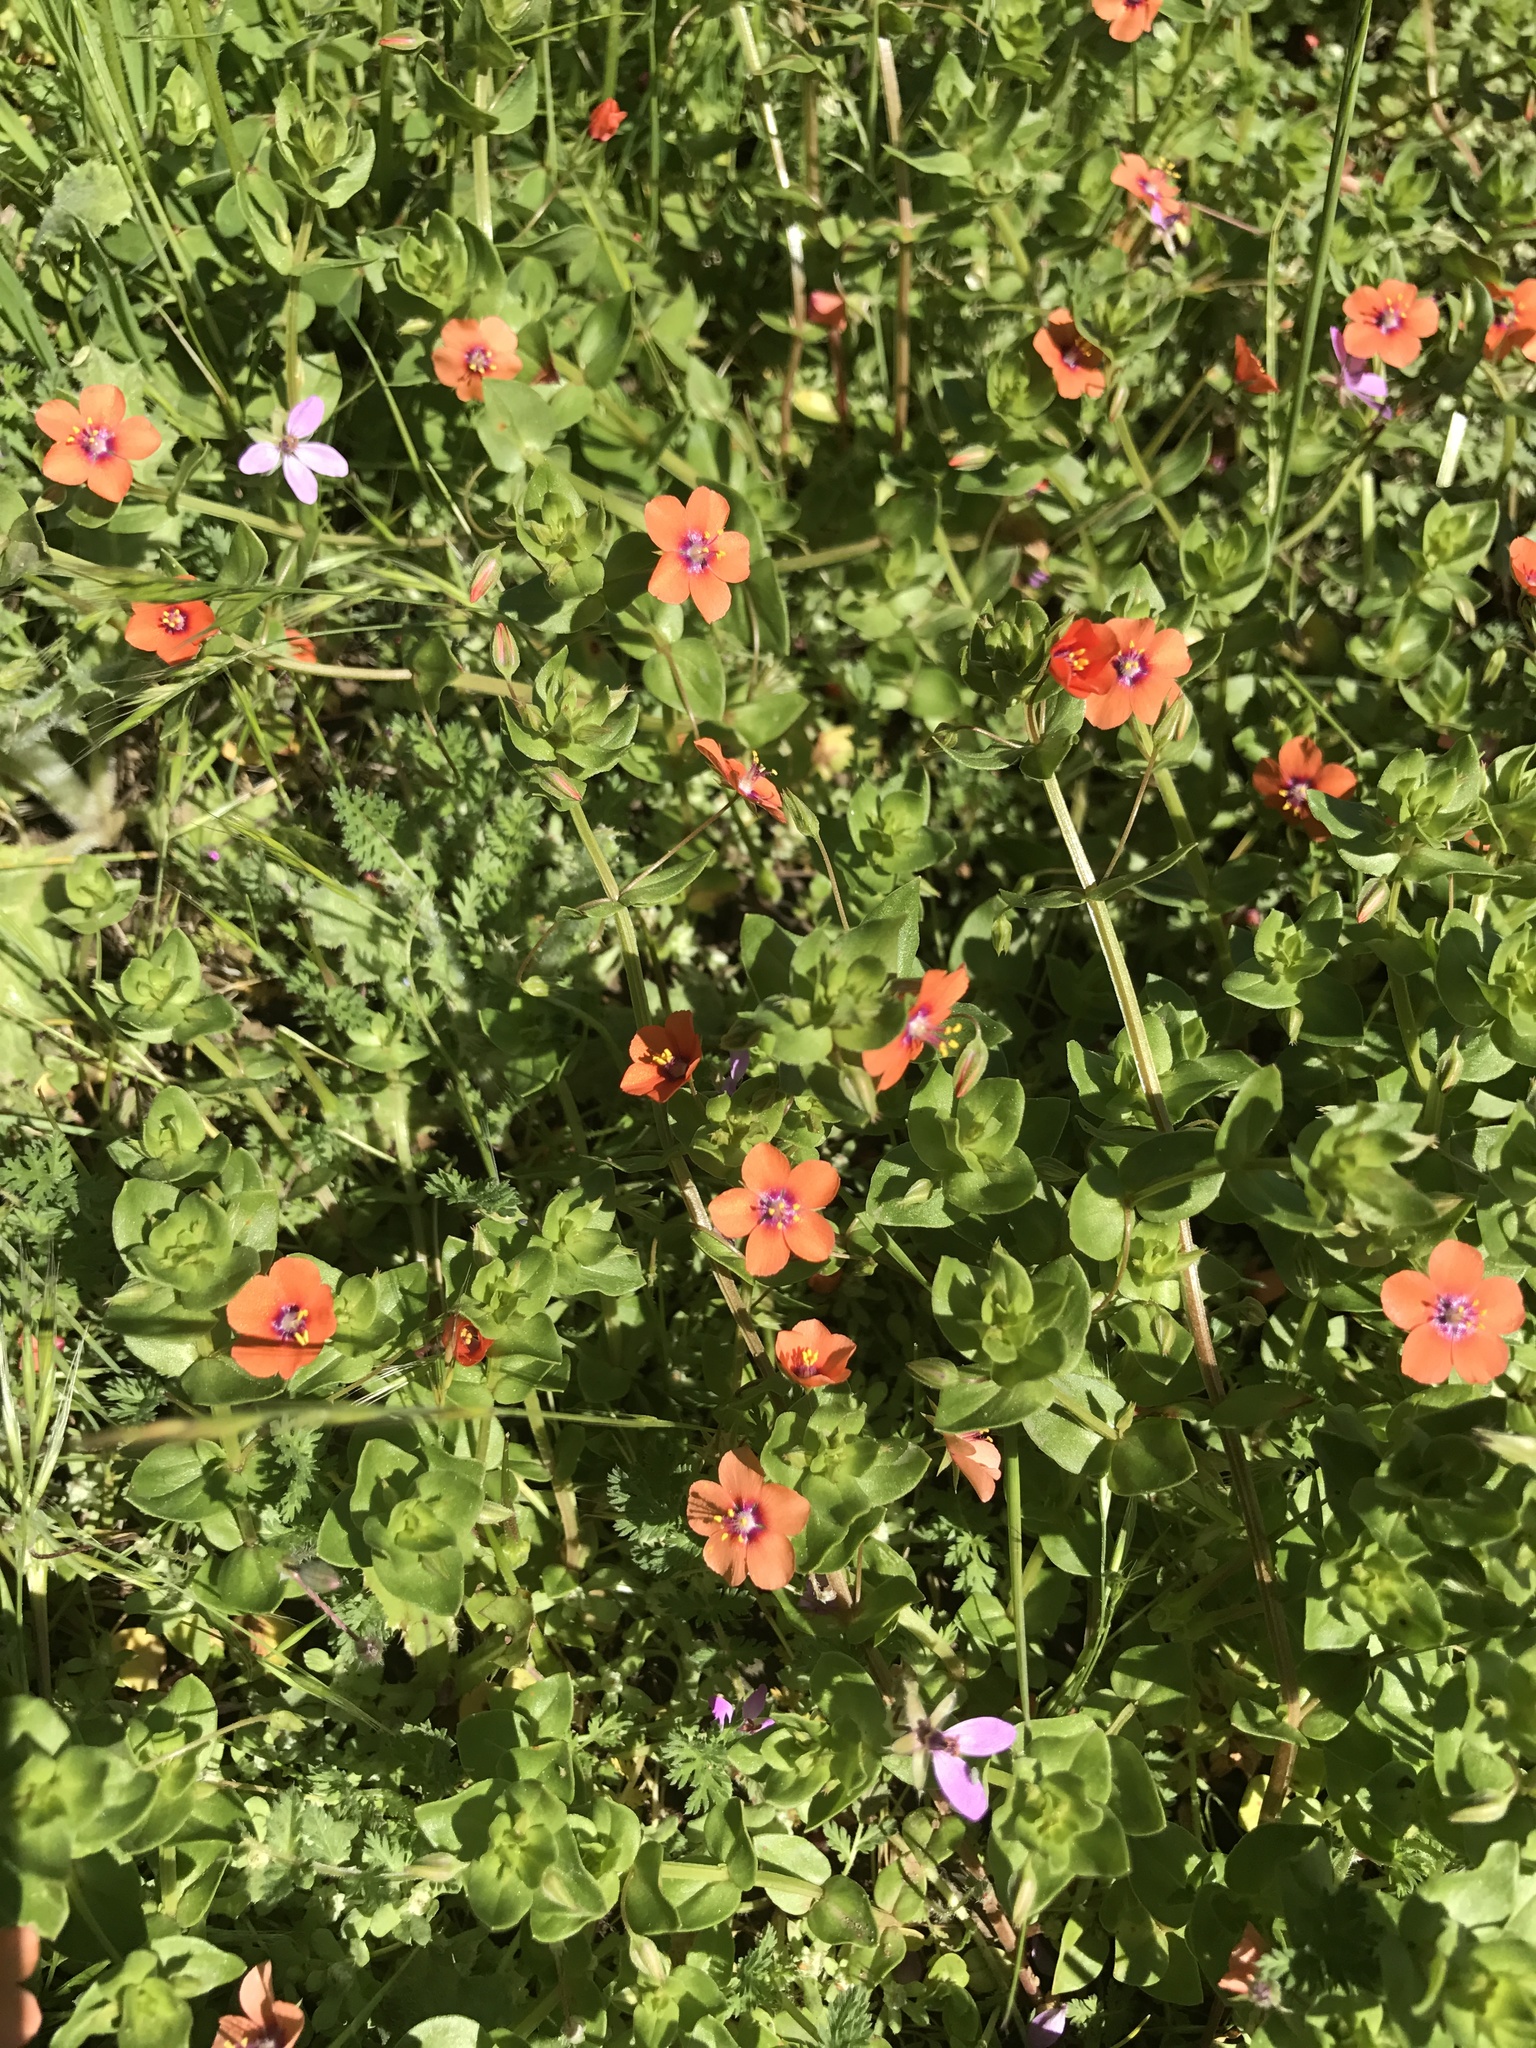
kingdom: Plantae
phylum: Tracheophyta
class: Magnoliopsida
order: Ericales
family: Primulaceae
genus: Lysimachia
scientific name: Lysimachia arvensis
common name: Scarlet pimpernel
